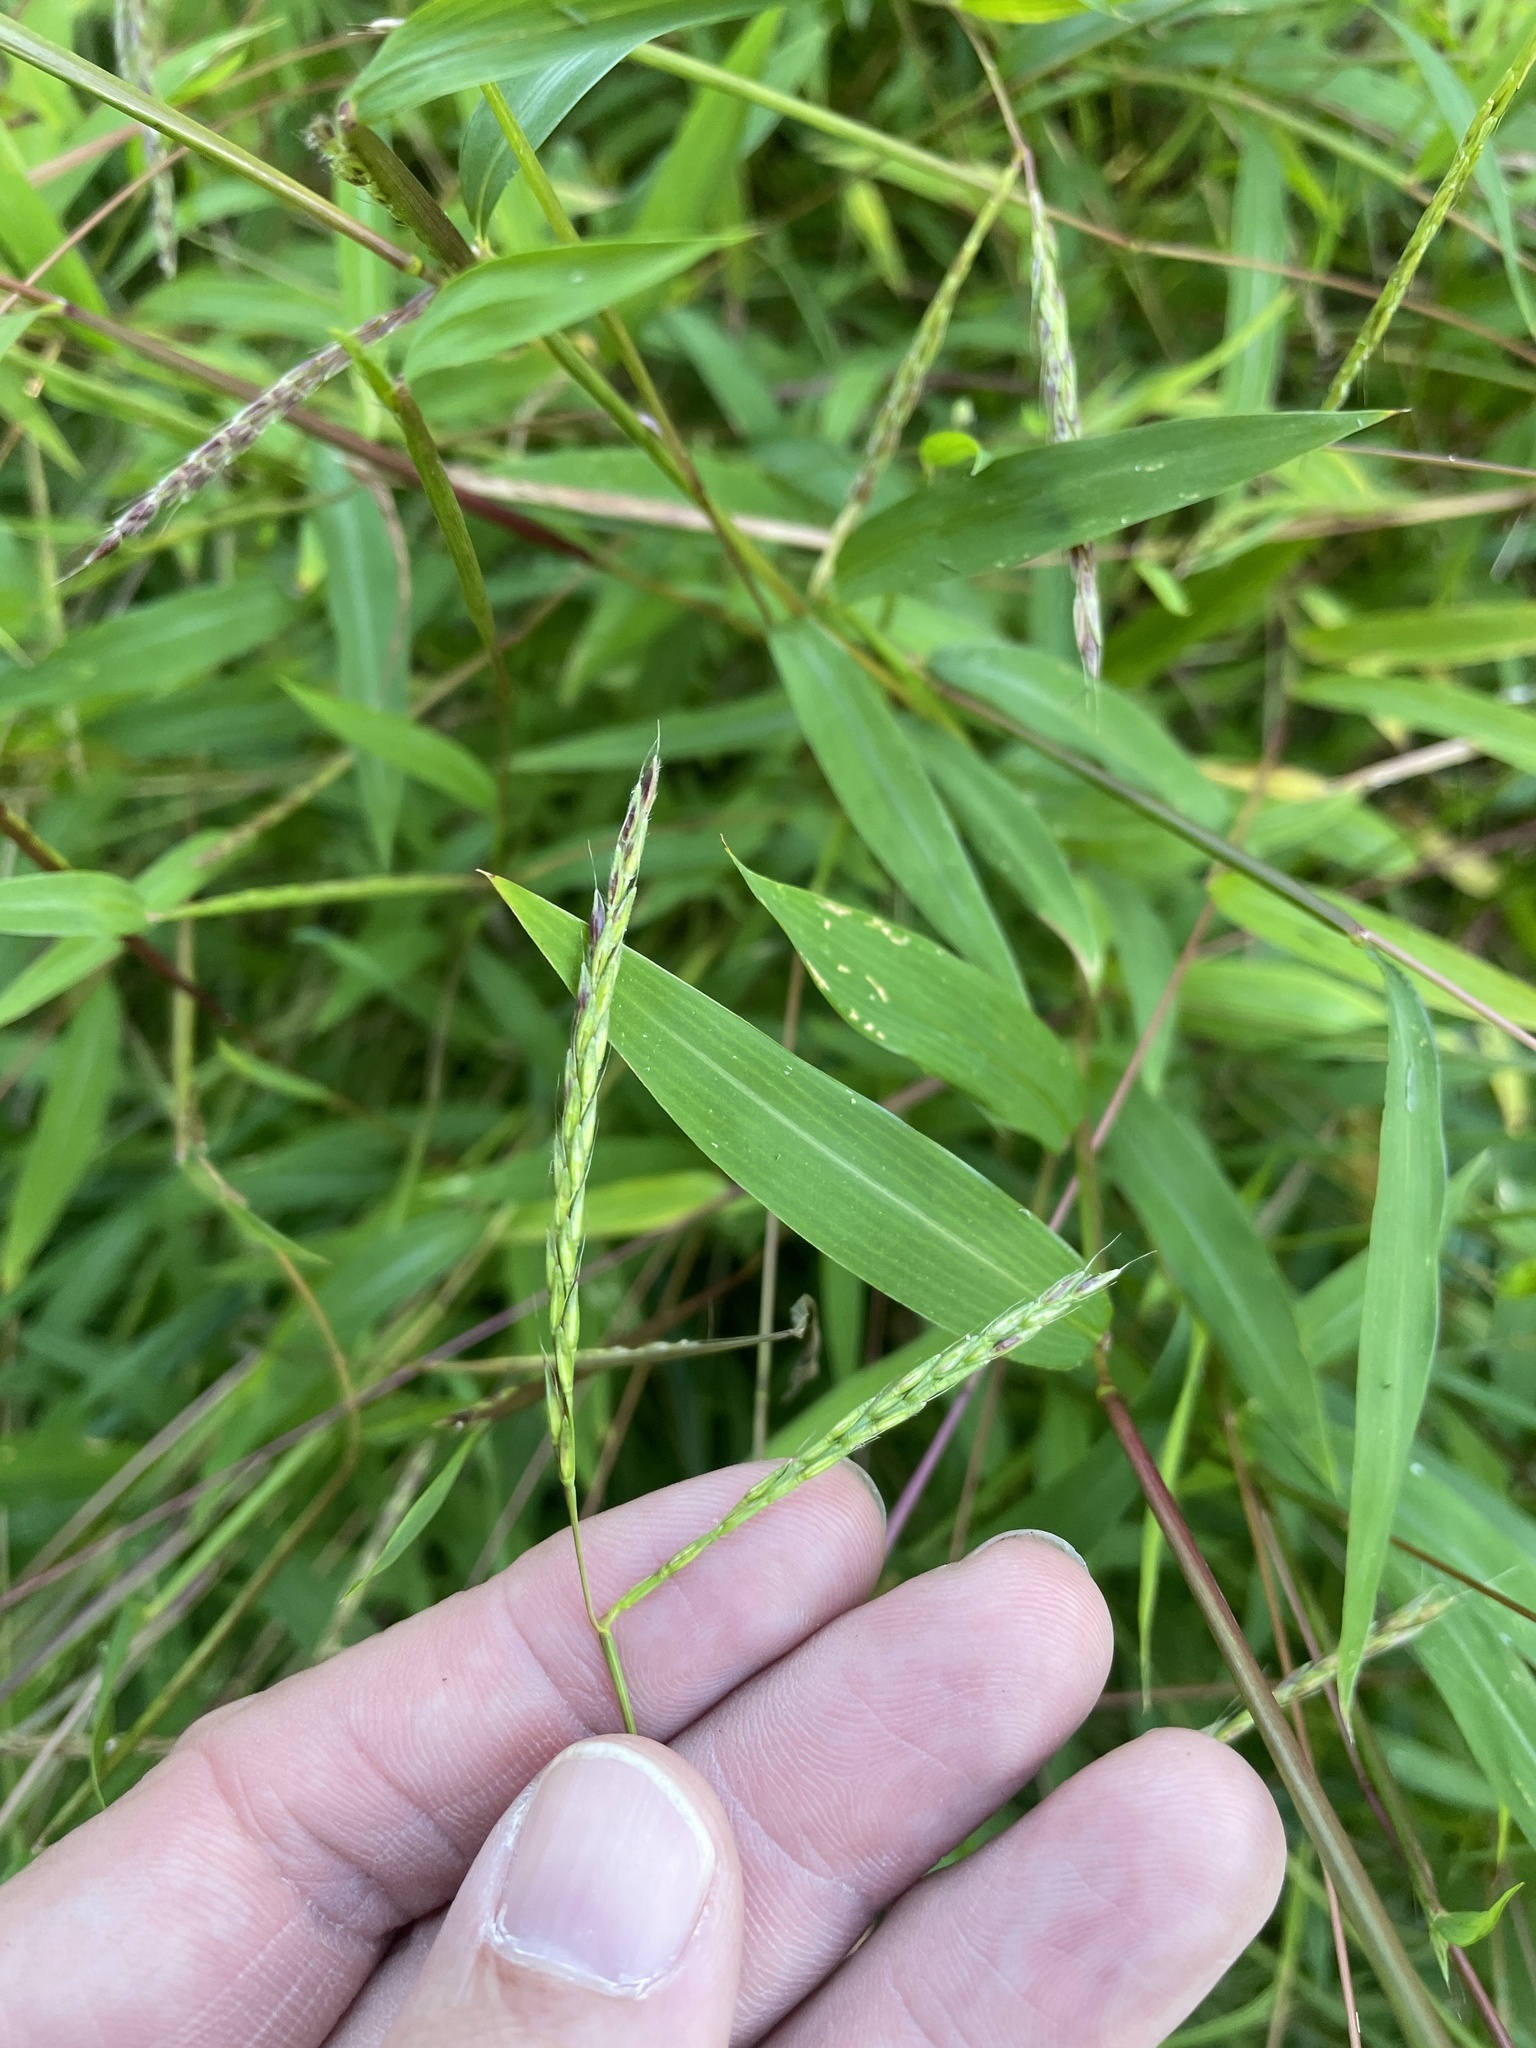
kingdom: Plantae
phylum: Tracheophyta
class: Liliopsida
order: Poales
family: Poaceae
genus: Microstegium
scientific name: Microstegium vimineum
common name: Japanese stiltgrass
